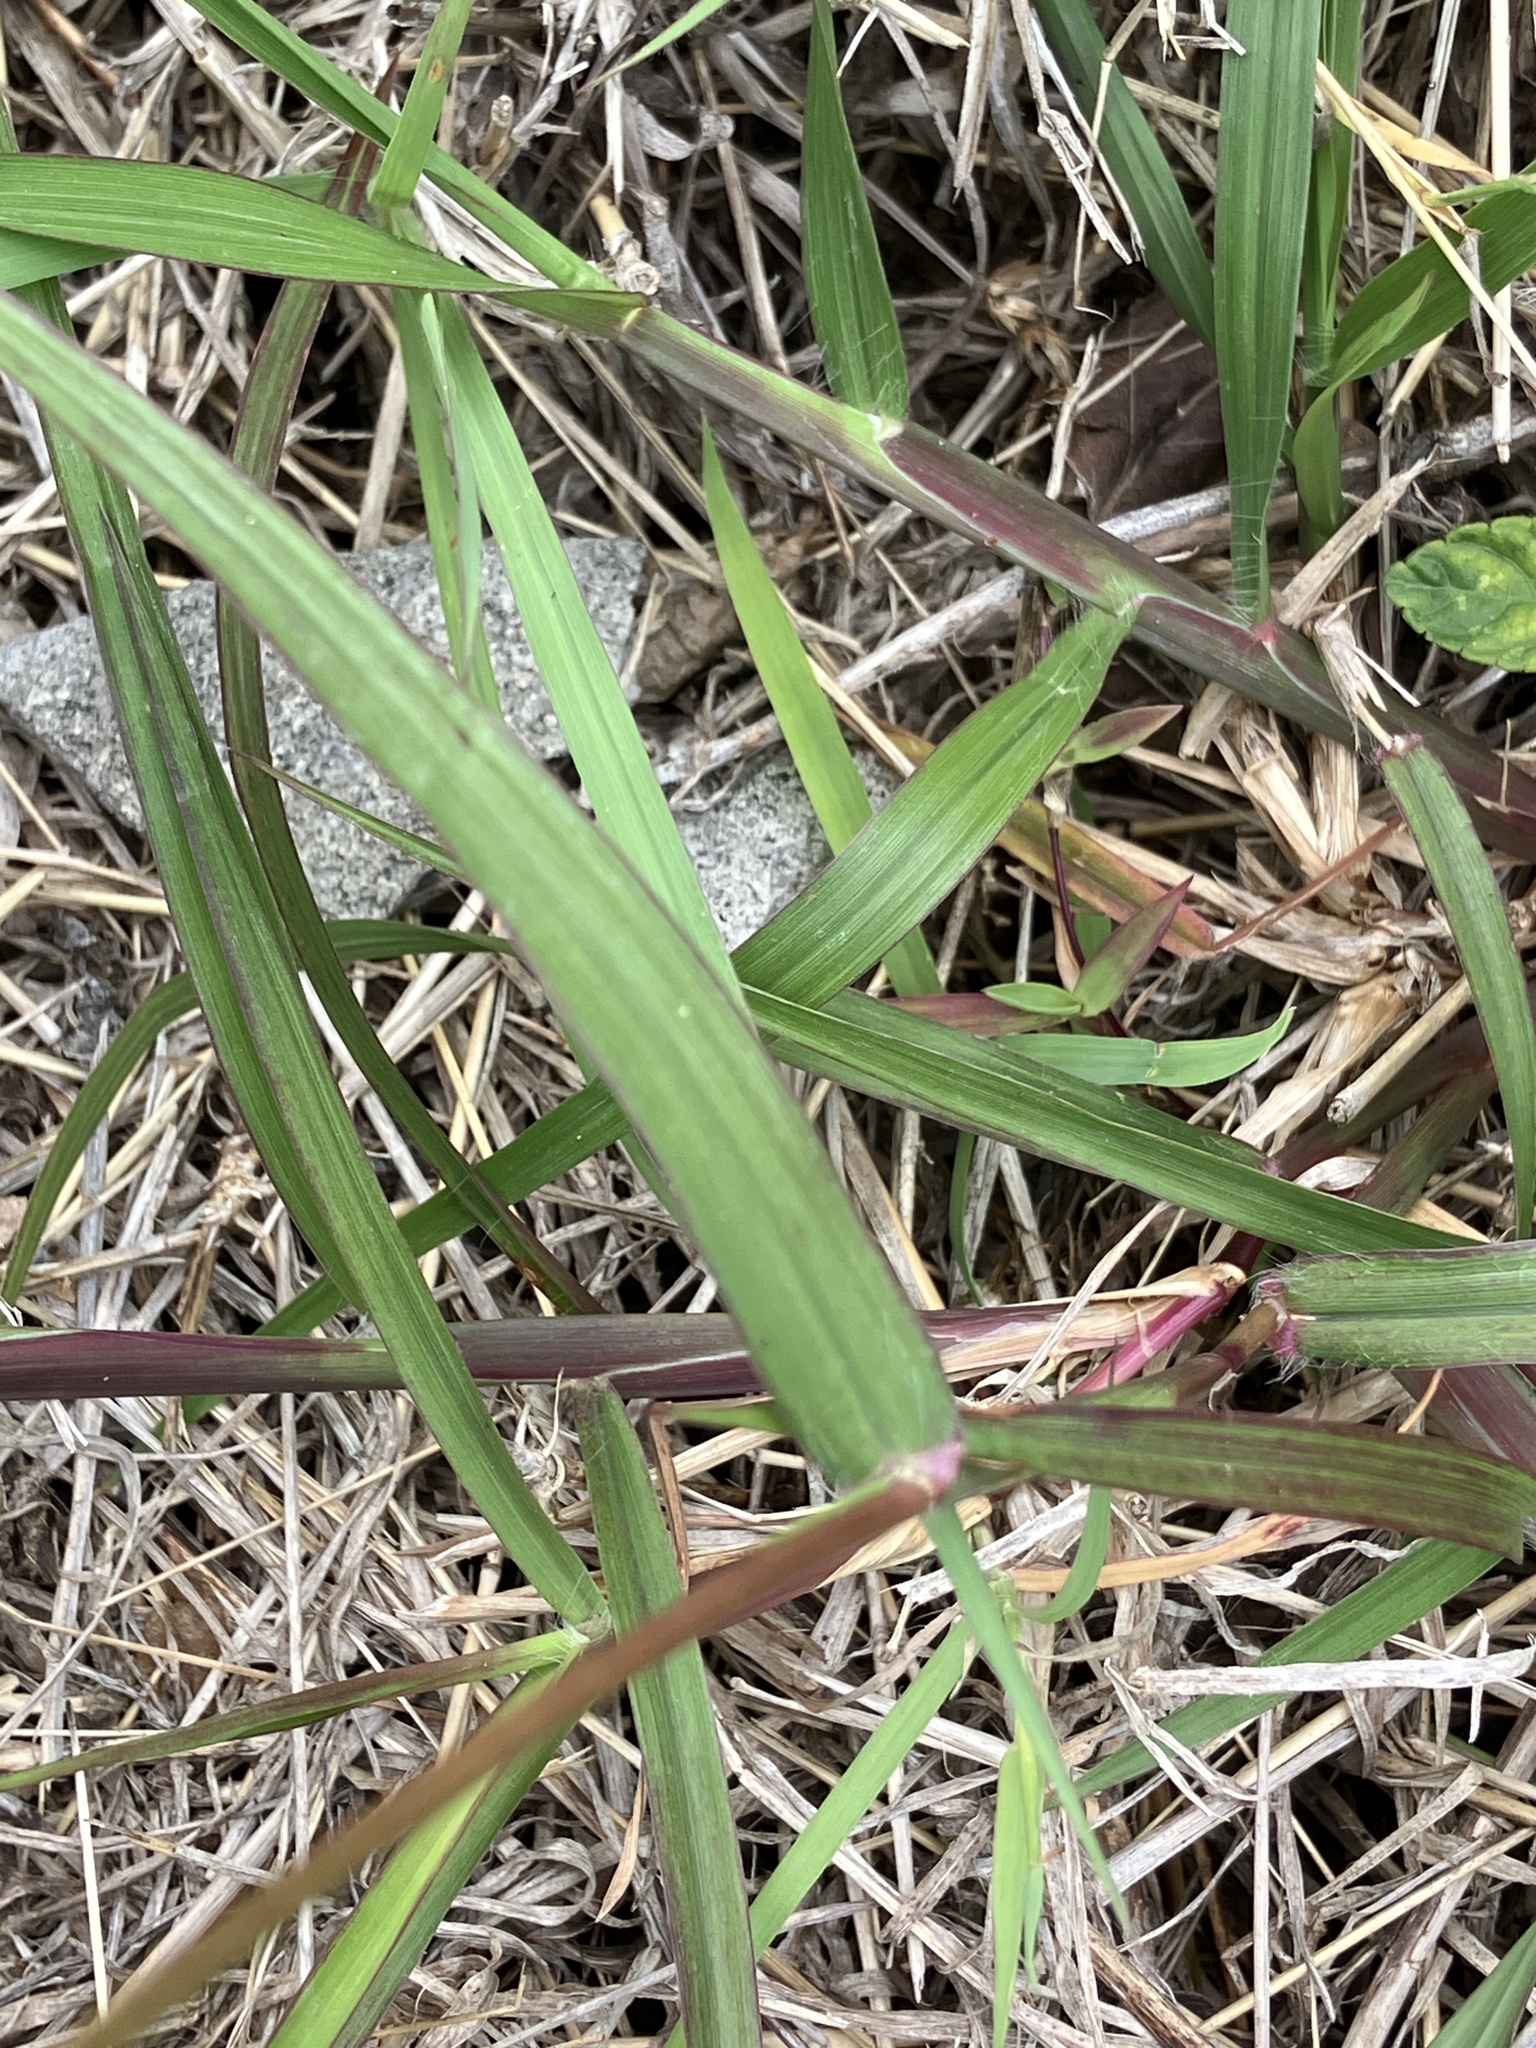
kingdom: Plantae
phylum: Tracheophyta
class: Liliopsida
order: Poales
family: Poaceae
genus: Cenchrus
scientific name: Cenchrus echinatus
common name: Southern sandbur
